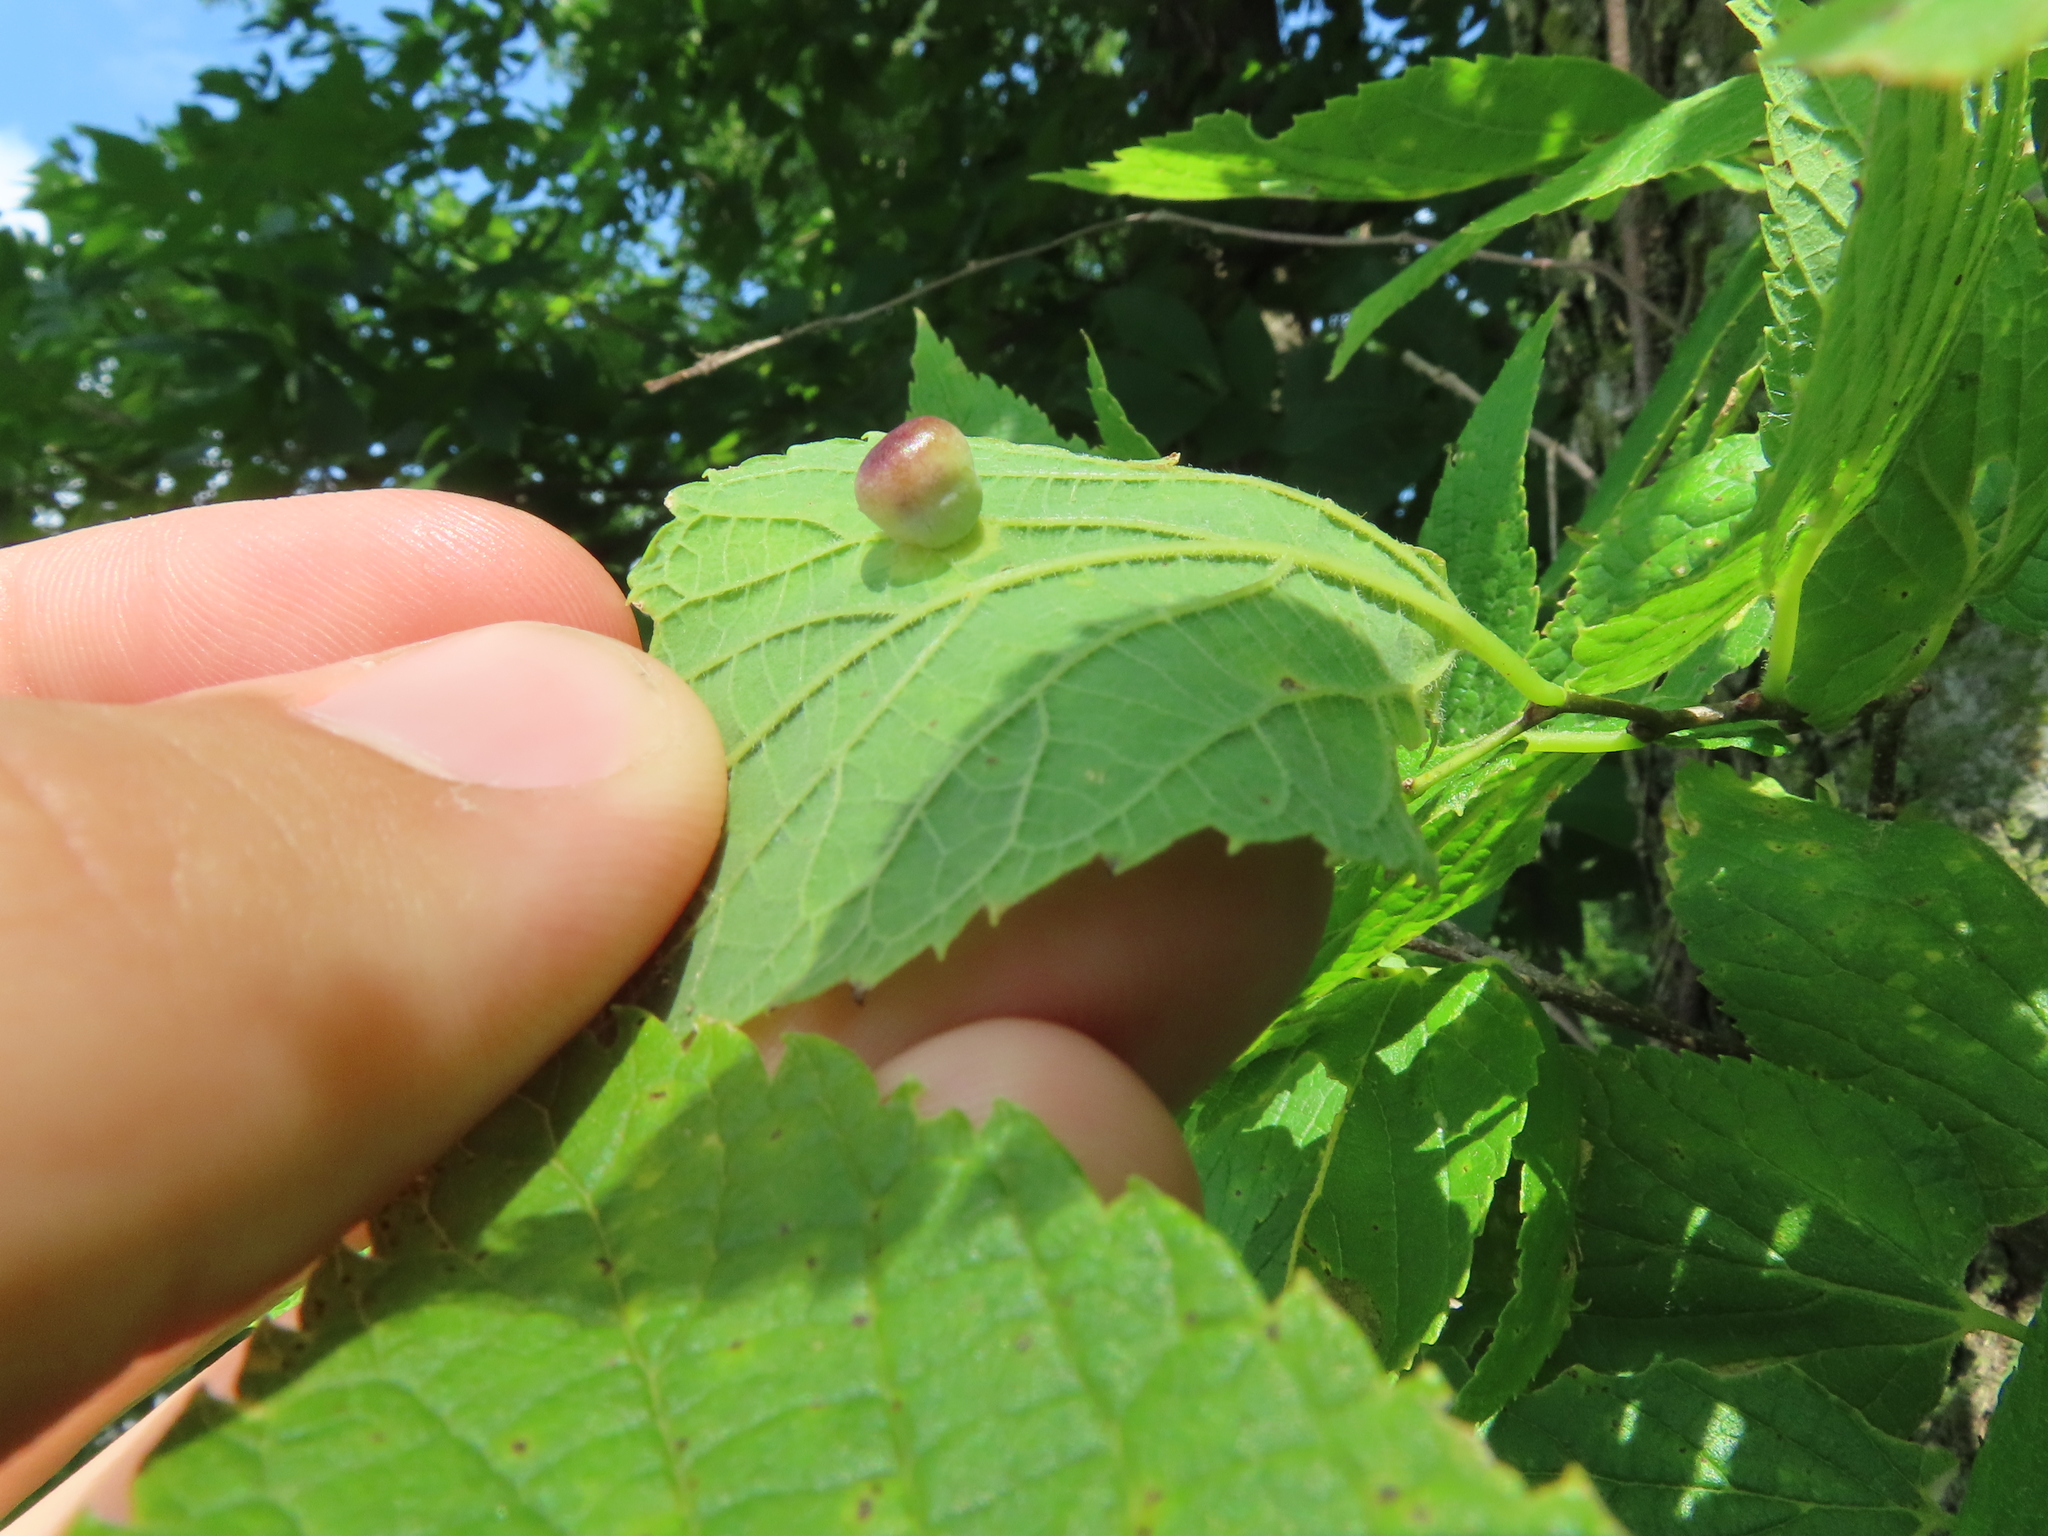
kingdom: Animalia
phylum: Arthropoda
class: Insecta
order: Hemiptera
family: Aphalaridae
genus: Pachypsylla
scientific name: Pachypsylla celtidismamma
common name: Hackberry nipplegall psyllid
